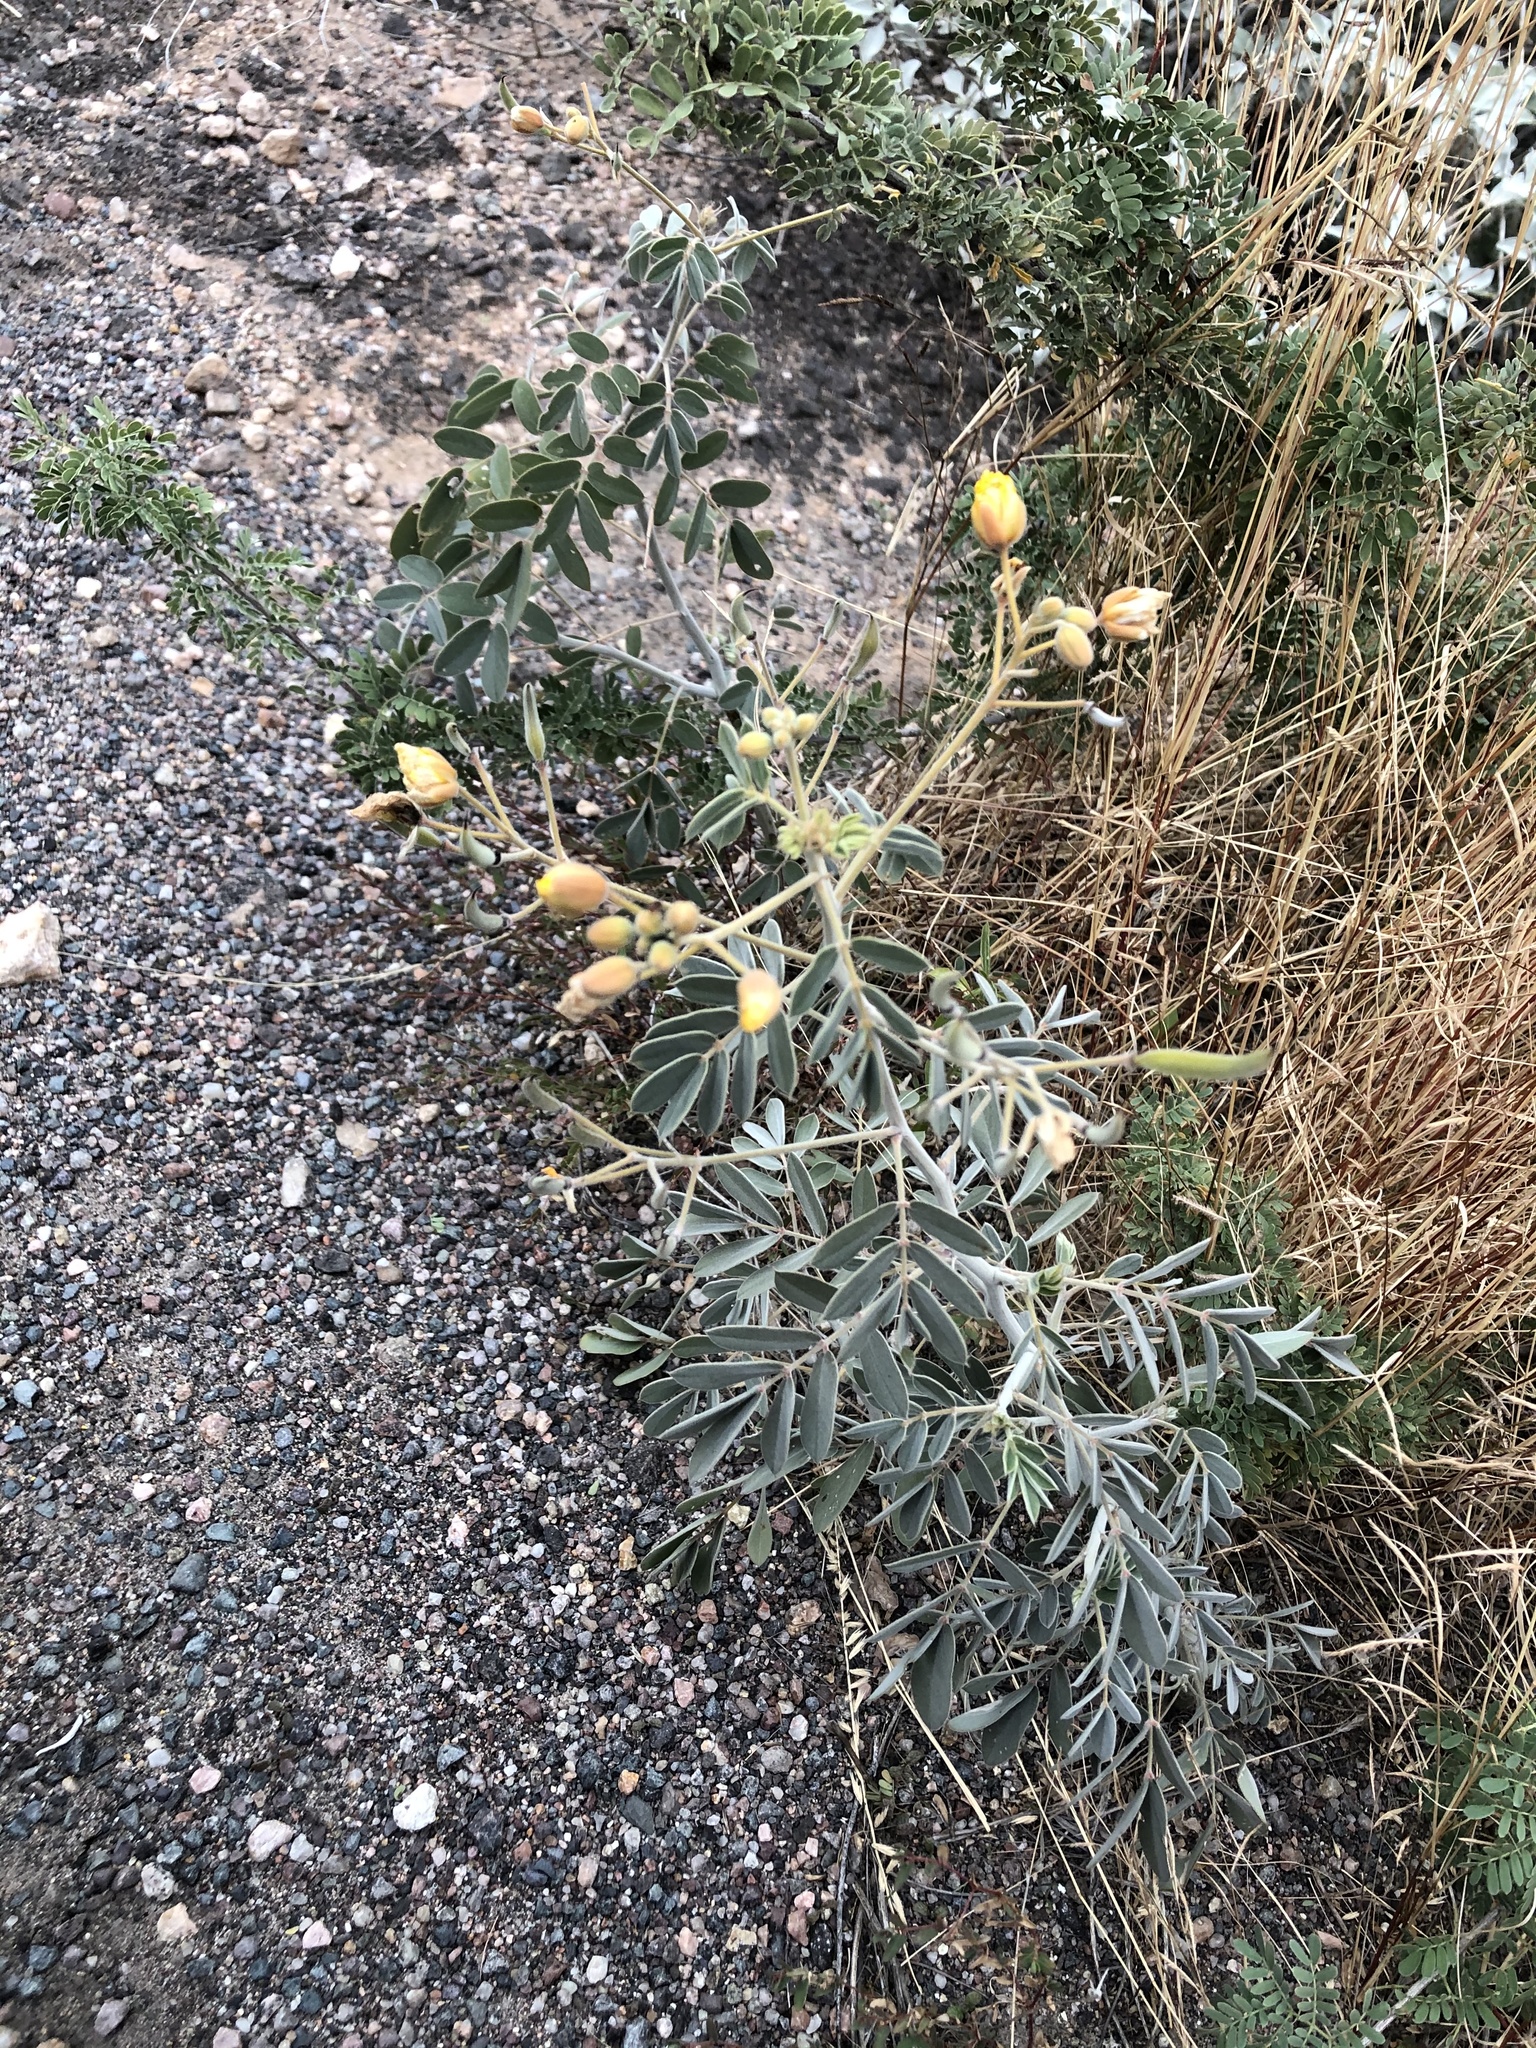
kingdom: Plantae
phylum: Tracheophyta
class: Magnoliopsida
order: Fabales
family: Fabaceae
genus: Senna
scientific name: Senna covesii
